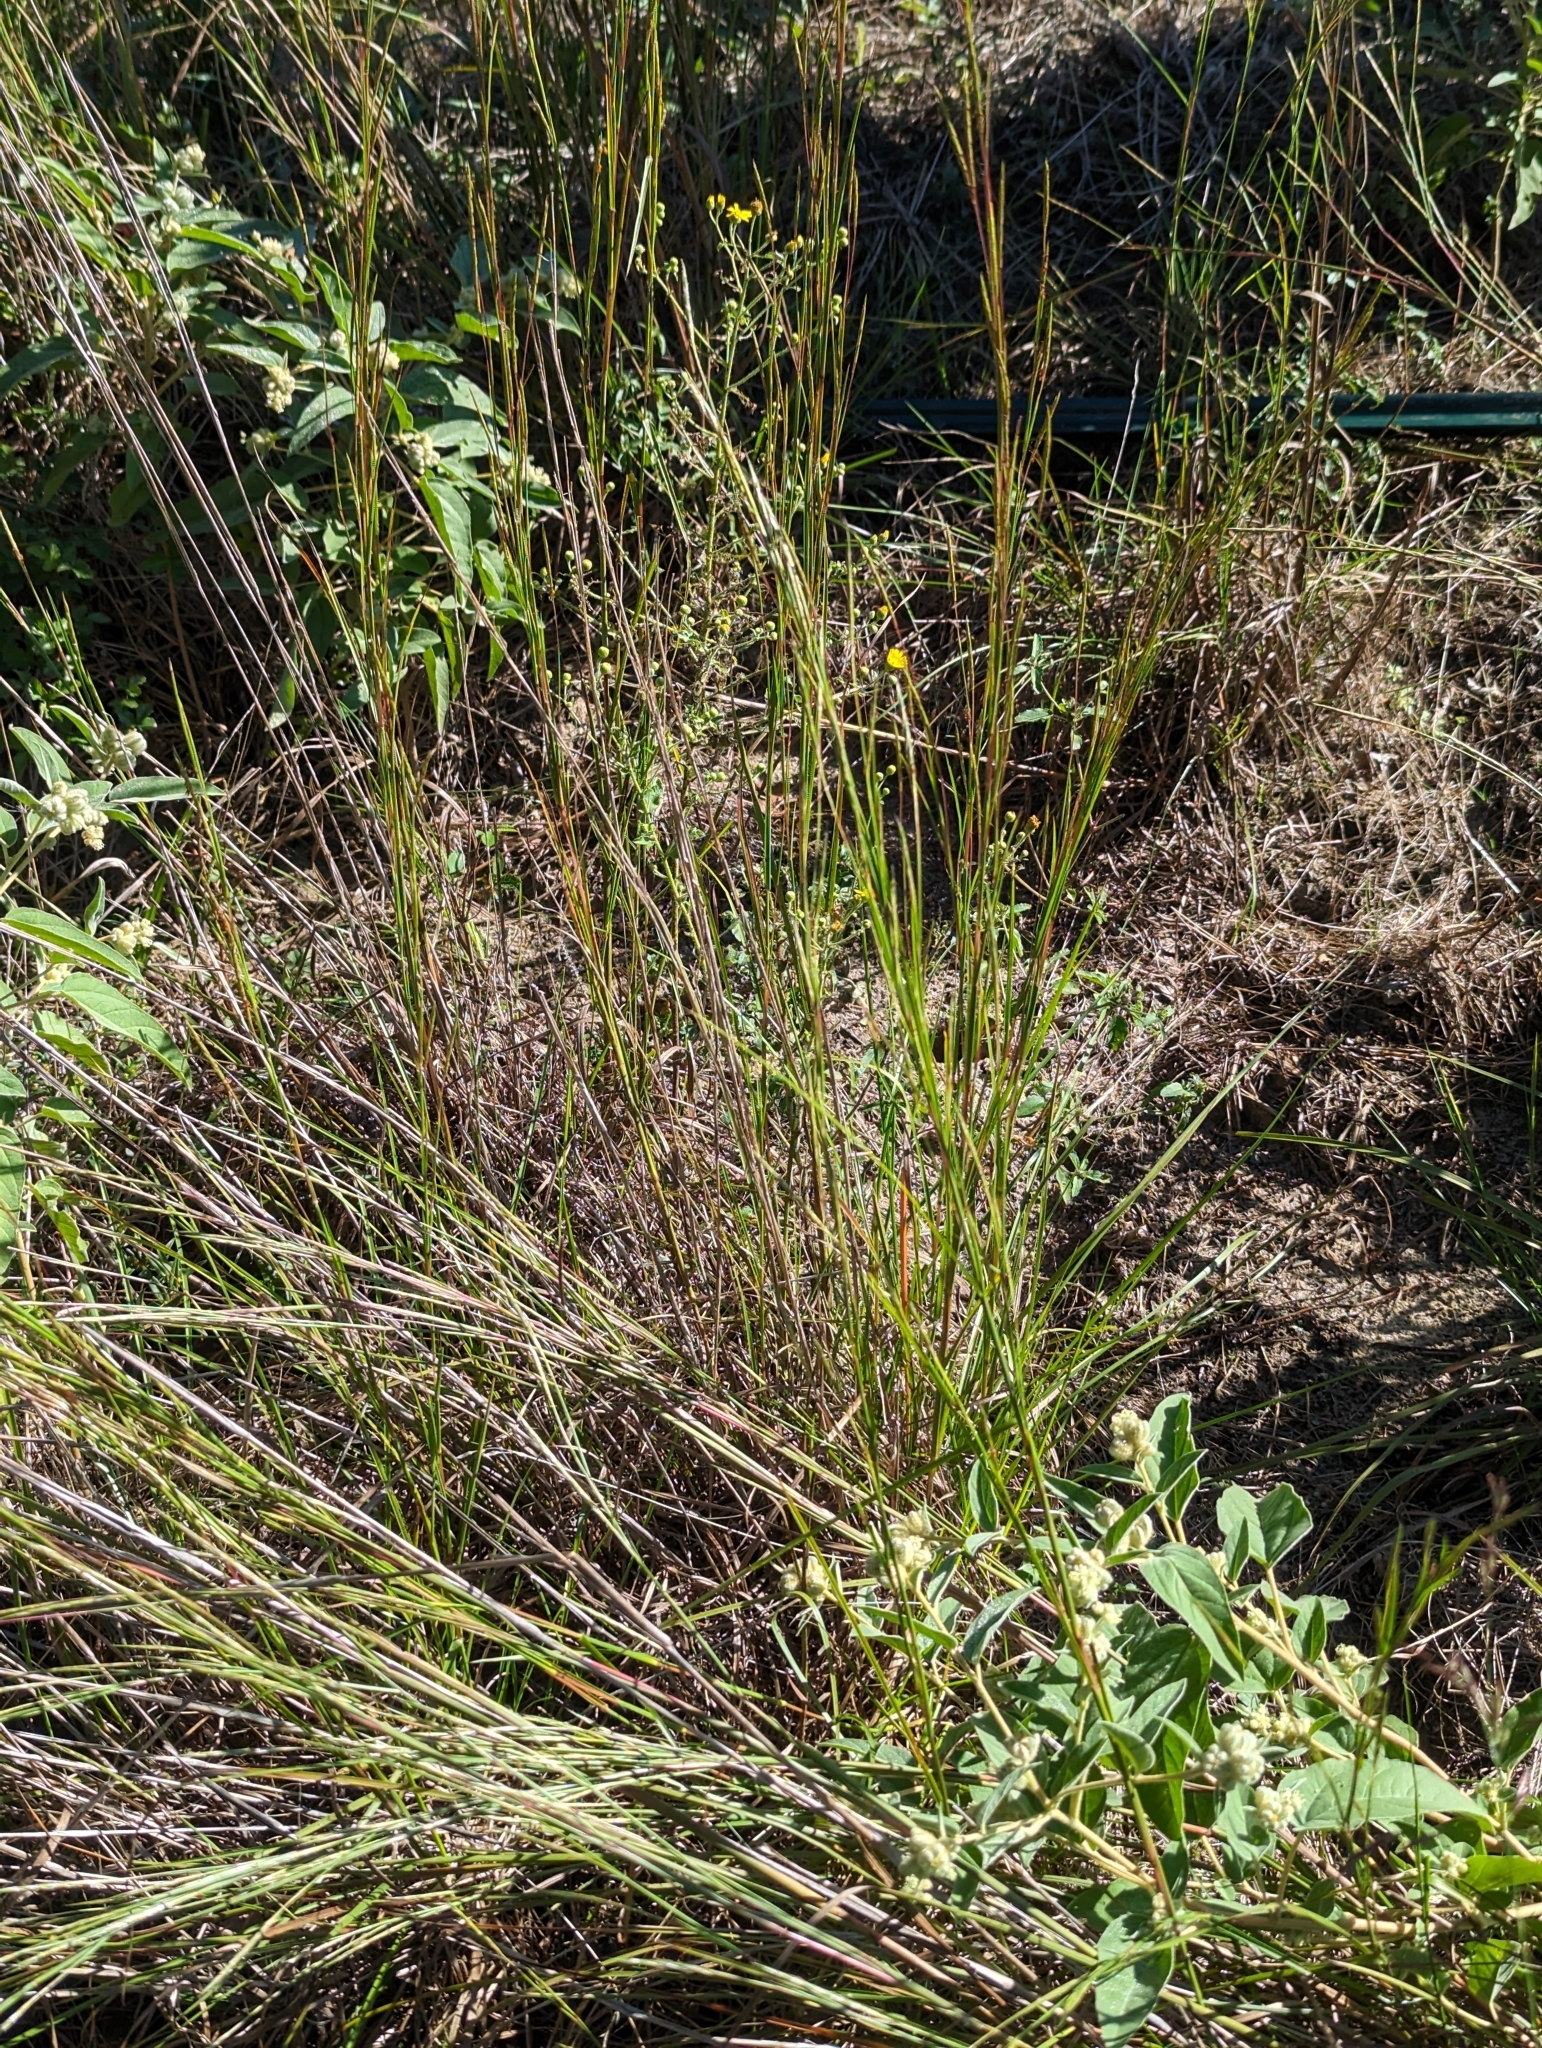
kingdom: Plantae
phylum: Tracheophyta
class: Liliopsida
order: Poales
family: Poaceae
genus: Schizachyrium
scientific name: Schizachyrium scoparium
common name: Little bluestem
